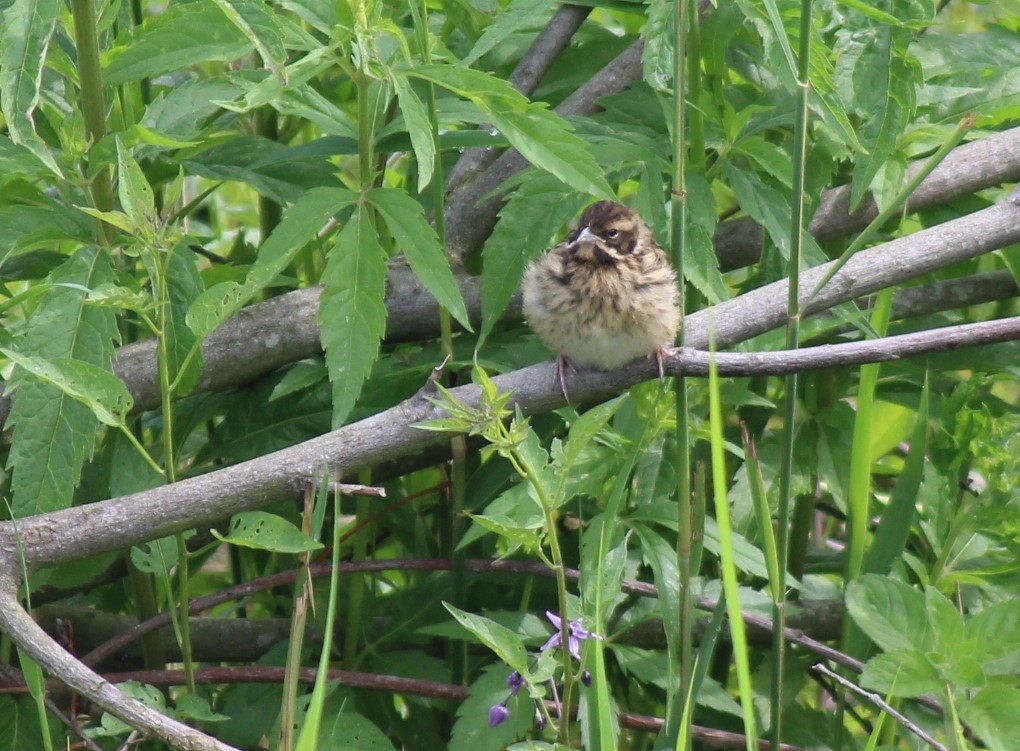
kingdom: Animalia
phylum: Chordata
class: Aves
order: Passeriformes
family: Emberizidae
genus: Emberiza
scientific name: Emberiza schoeniclus
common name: Reed bunting
